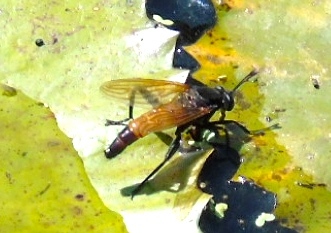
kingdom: Animalia
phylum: Arthropoda
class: Insecta
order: Diptera
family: Mydidae
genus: Mydas
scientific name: Mydas
